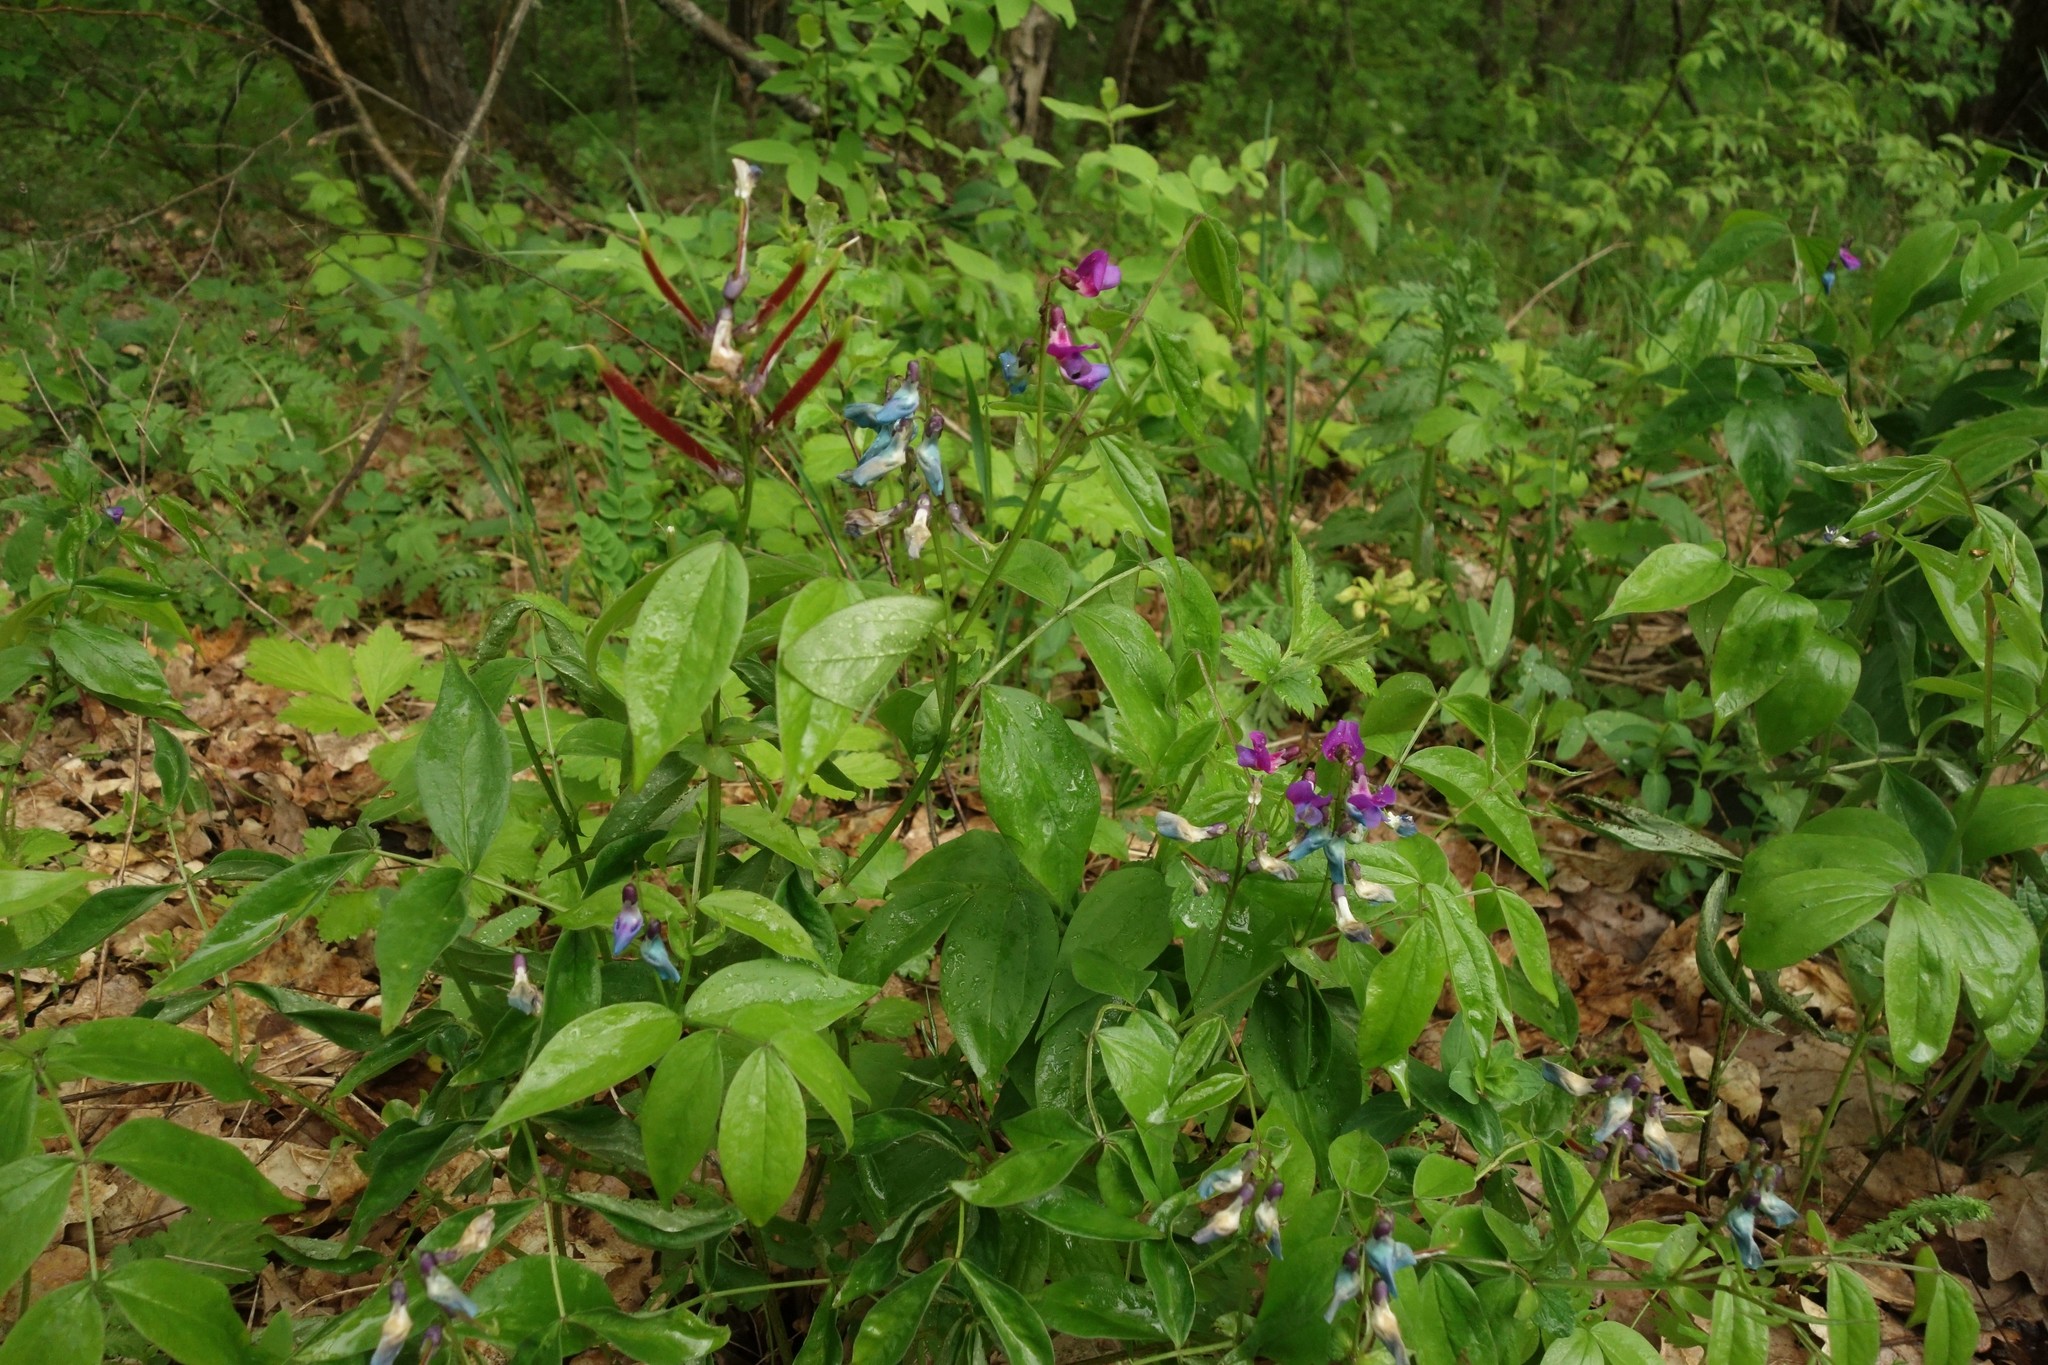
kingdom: Plantae
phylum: Tracheophyta
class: Magnoliopsida
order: Fabales
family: Fabaceae
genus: Lathyrus
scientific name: Lathyrus vernus
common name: Spring pea
